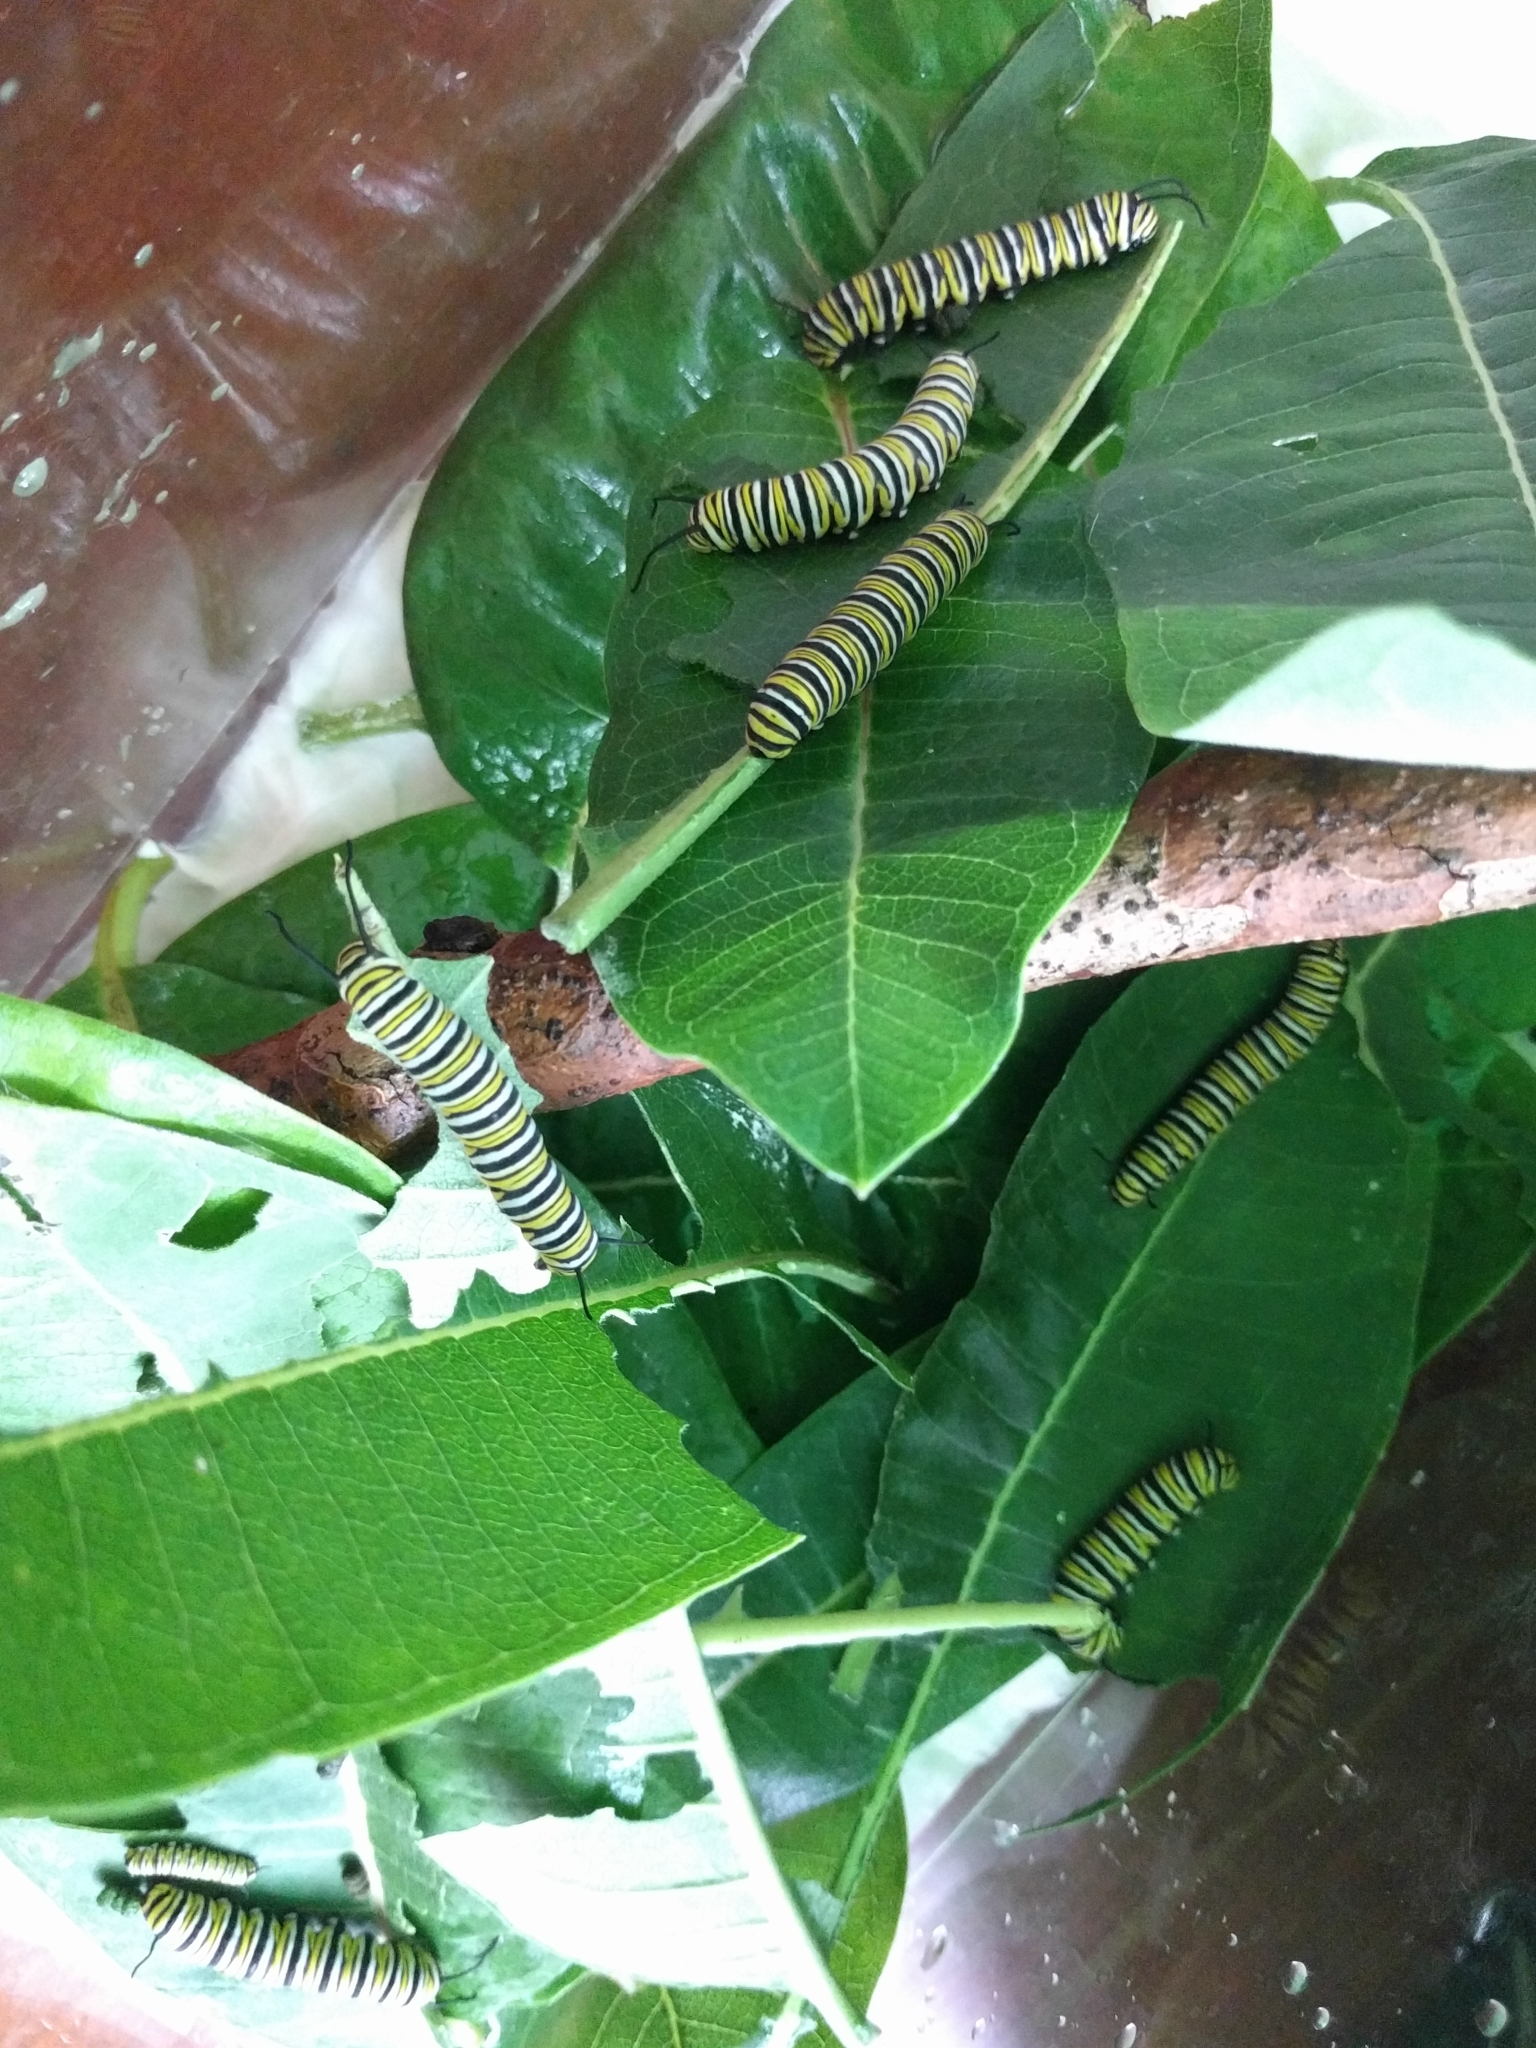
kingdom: Animalia
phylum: Arthropoda
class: Insecta
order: Lepidoptera
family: Nymphalidae
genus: Danaus
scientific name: Danaus plexippus
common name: Monarch
